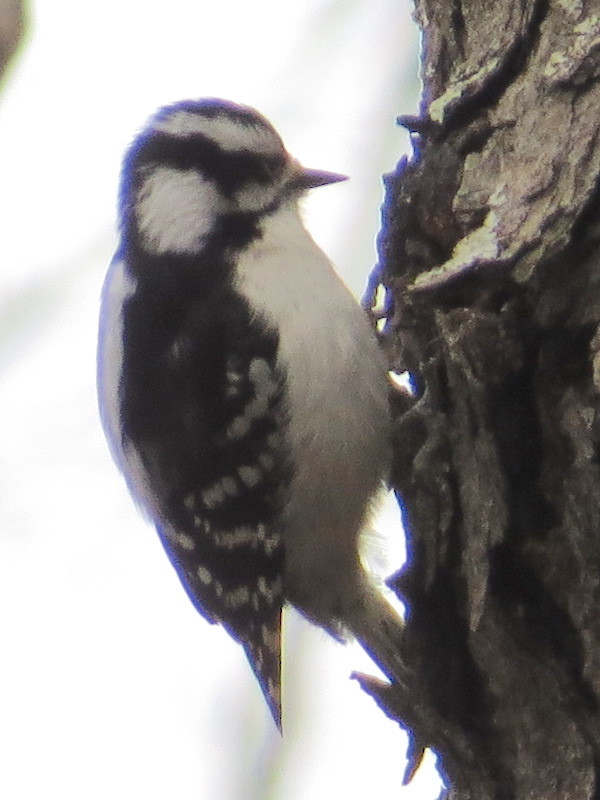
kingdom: Animalia
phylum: Chordata
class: Aves
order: Piciformes
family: Picidae
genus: Dryobates
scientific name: Dryobates pubescens
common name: Downy woodpecker
